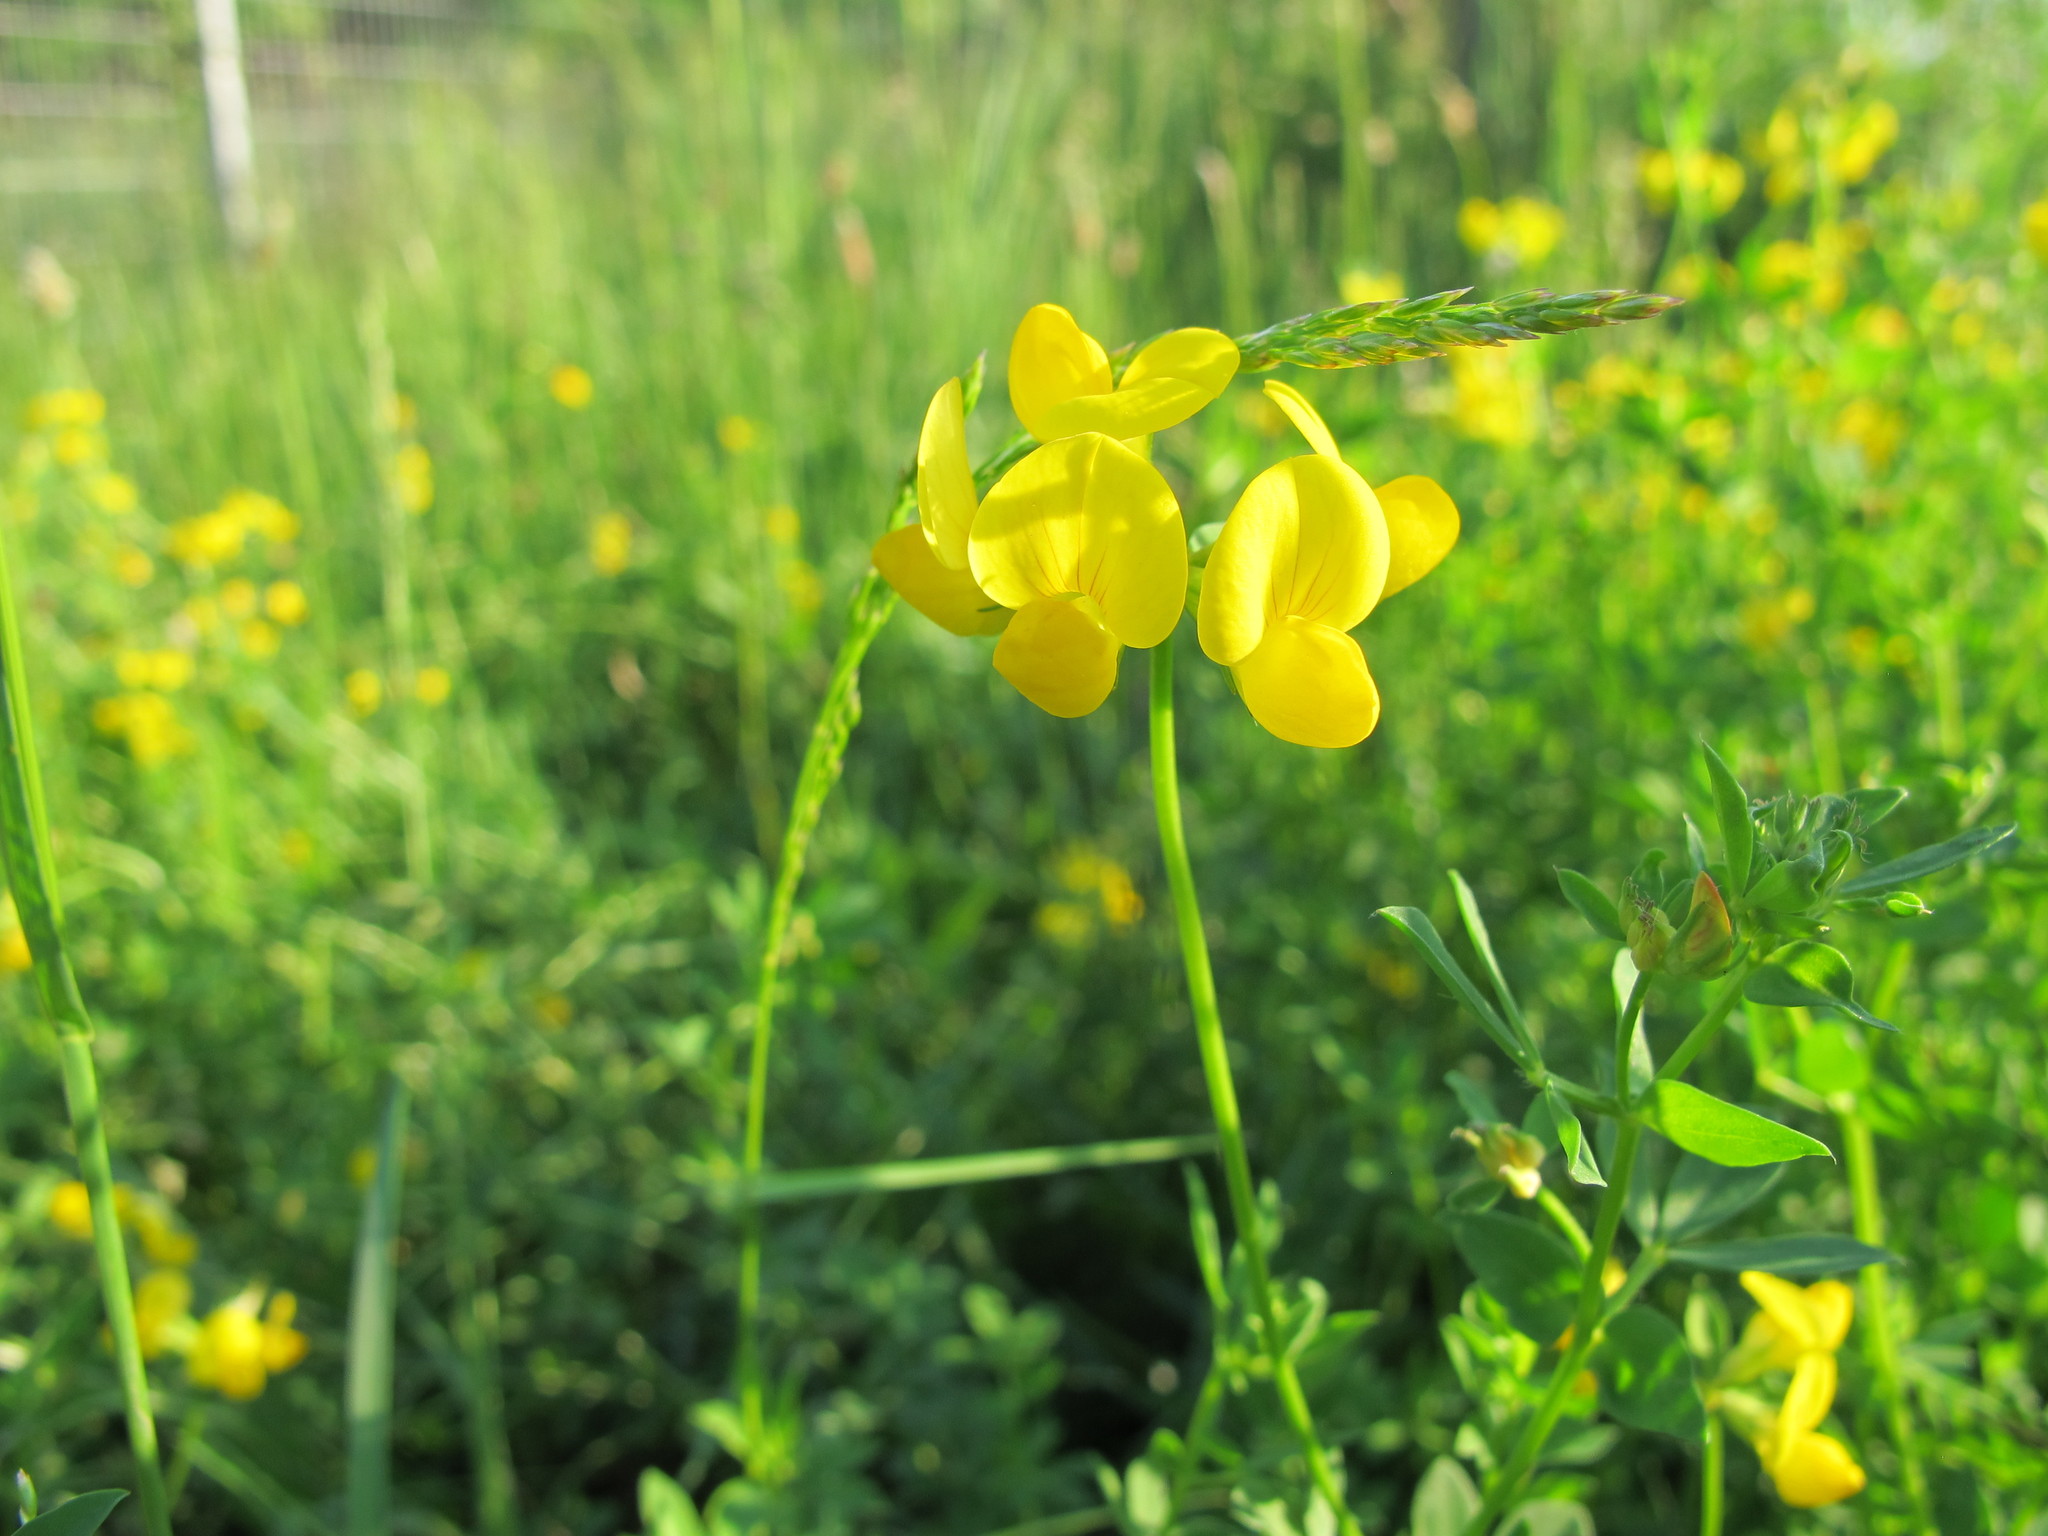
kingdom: Plantae
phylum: Tracheophyta
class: Magnoliopsida
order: Fabales
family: Fabaceae
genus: Lotus
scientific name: Lotus corniculatus
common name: Common bird's-foot-trefoil
